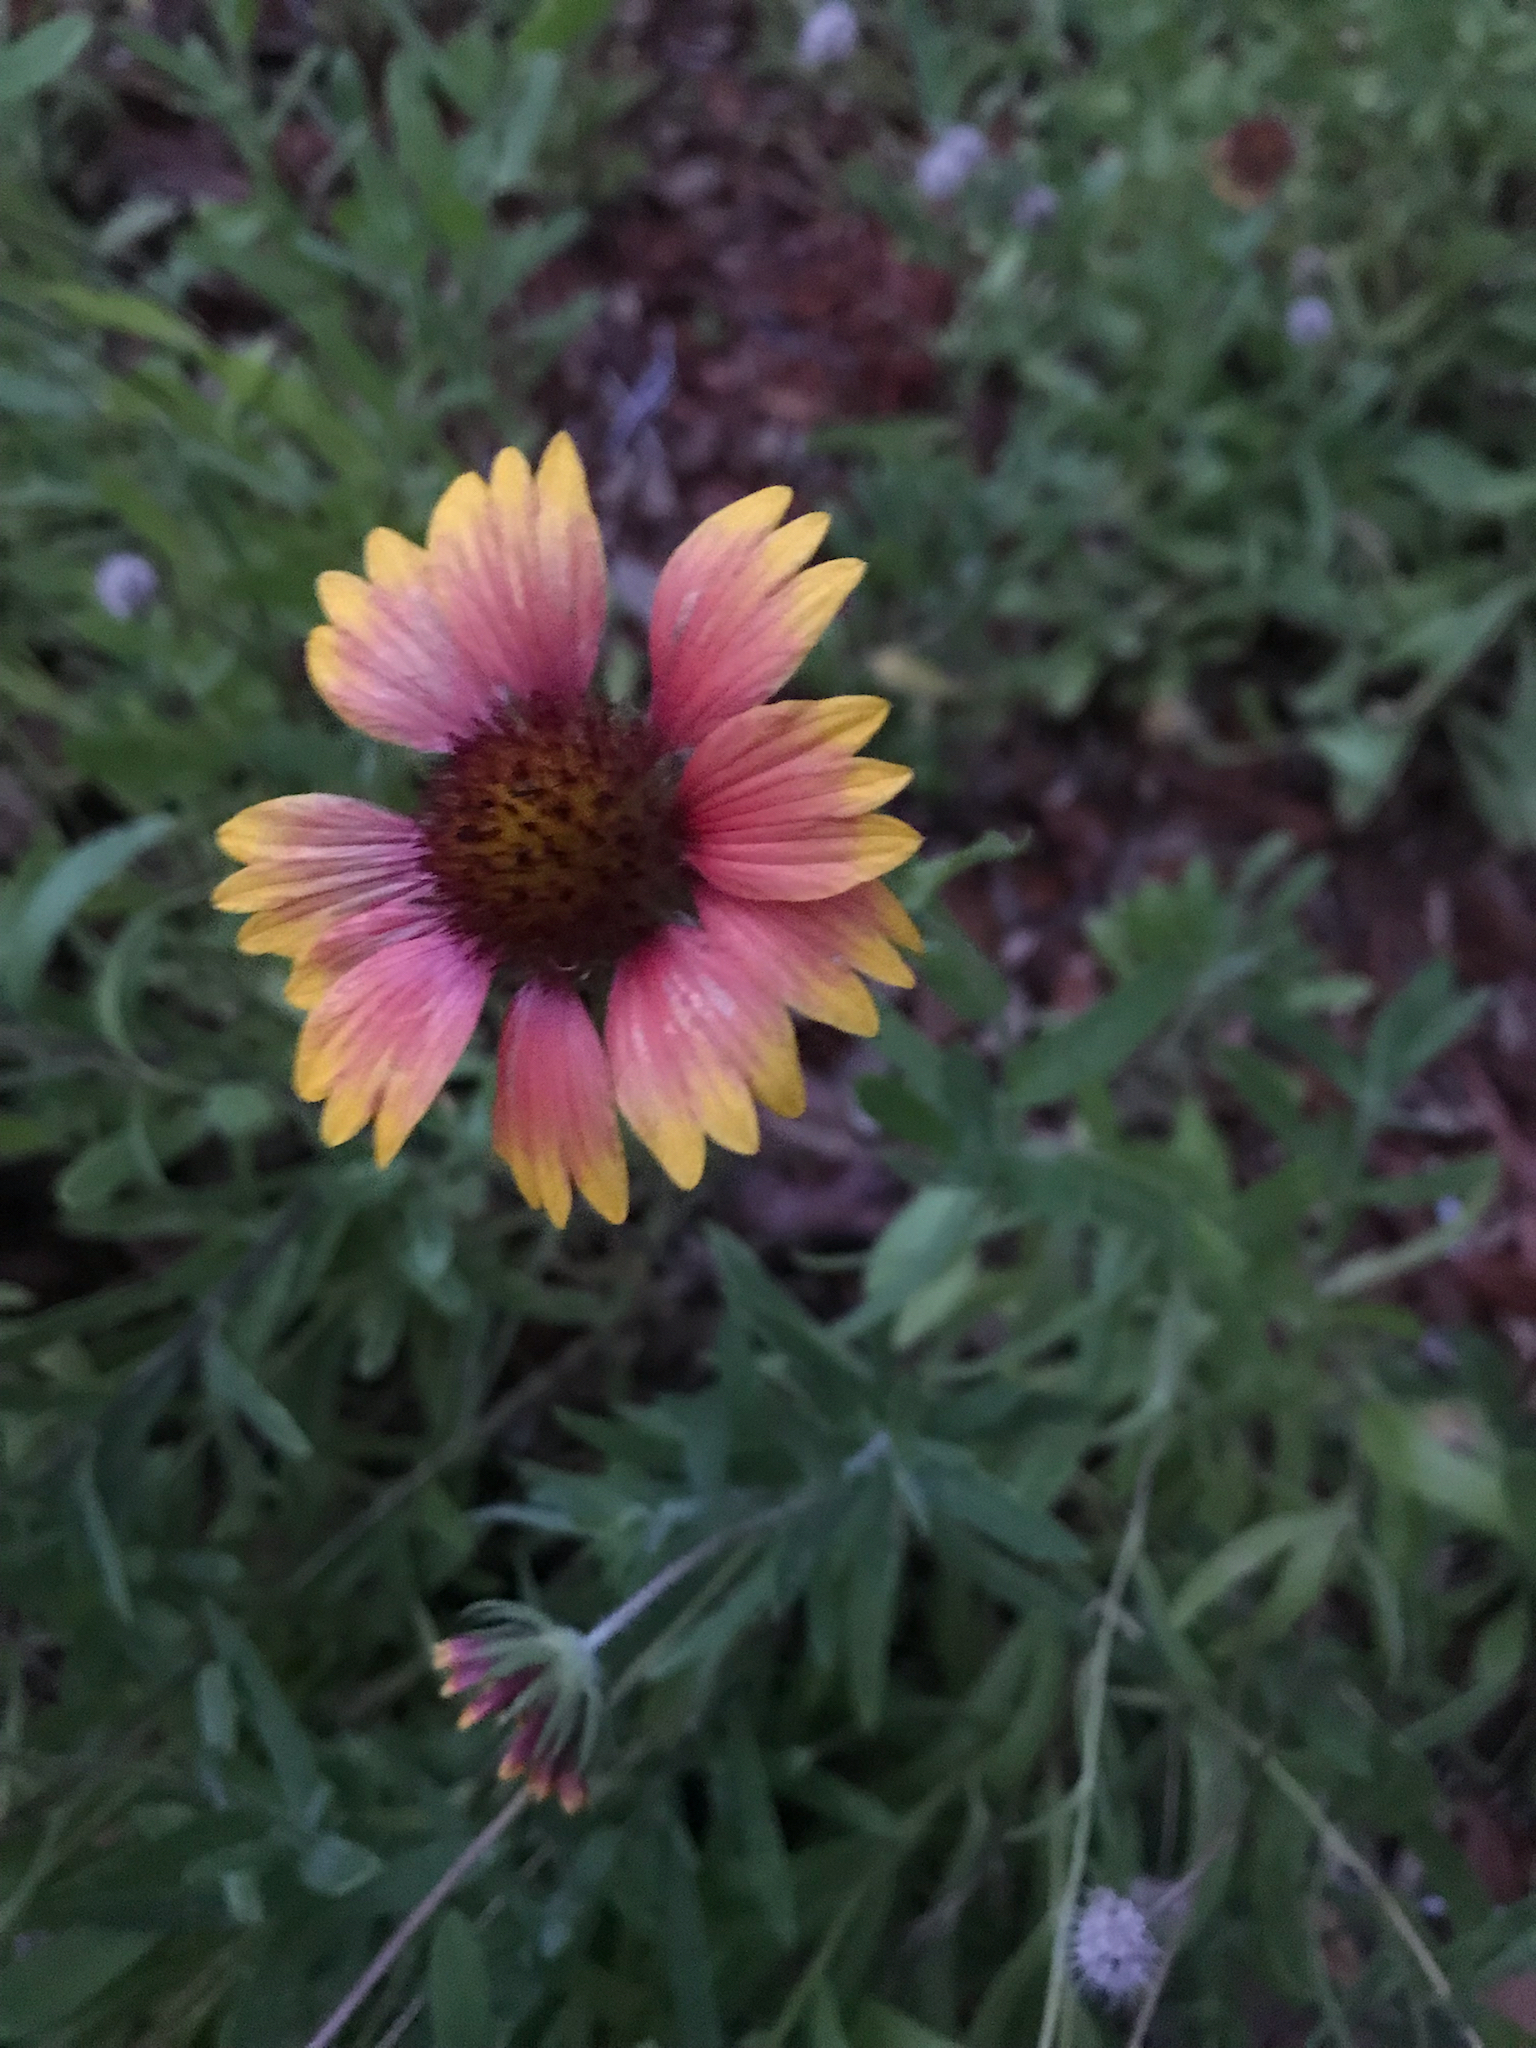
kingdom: Plantae
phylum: Tracheophyta
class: Magnoliopsida
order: Asterales
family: Asteraceae
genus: Gaillardia
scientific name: Gaillardia pulchella
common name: Firewheel
